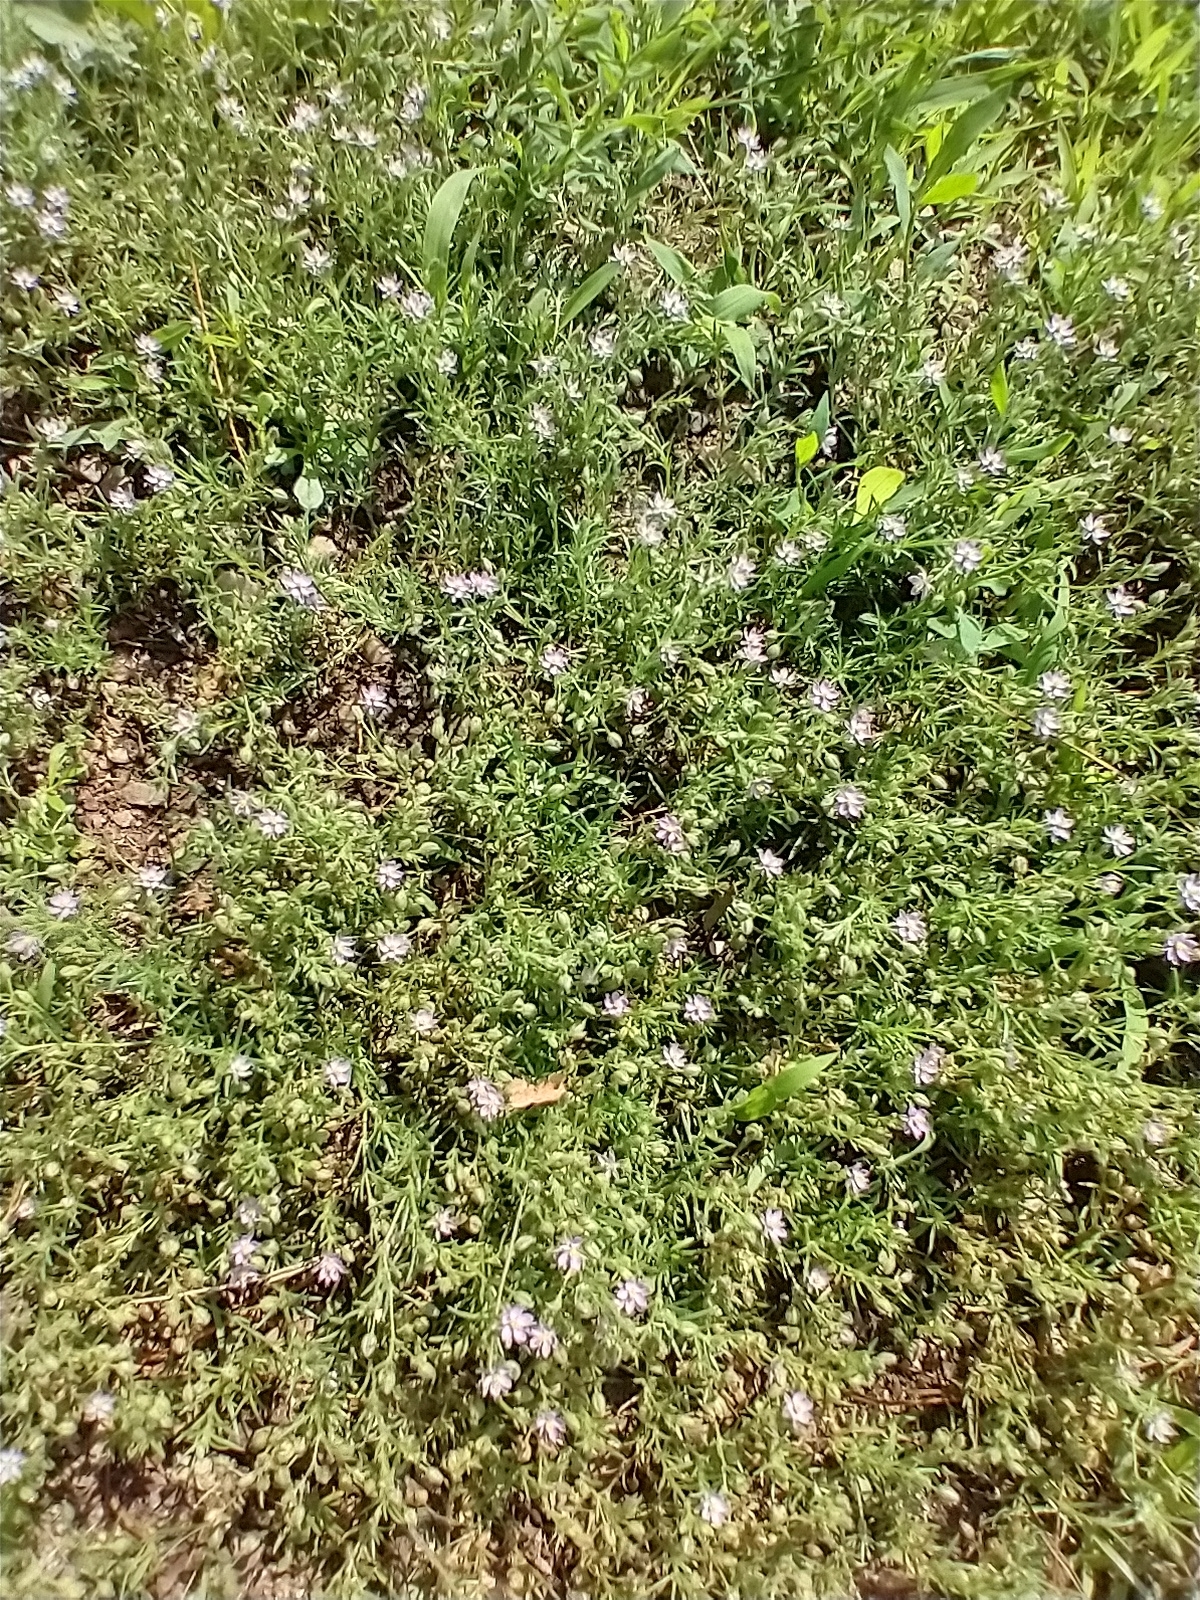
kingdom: Plantae
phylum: Tracheophyta
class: Magnoliopsida
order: Caryophyllales
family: Caryophyllaceae
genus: Spergularia
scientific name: Spergularia rubra
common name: Red sand-spurrey
